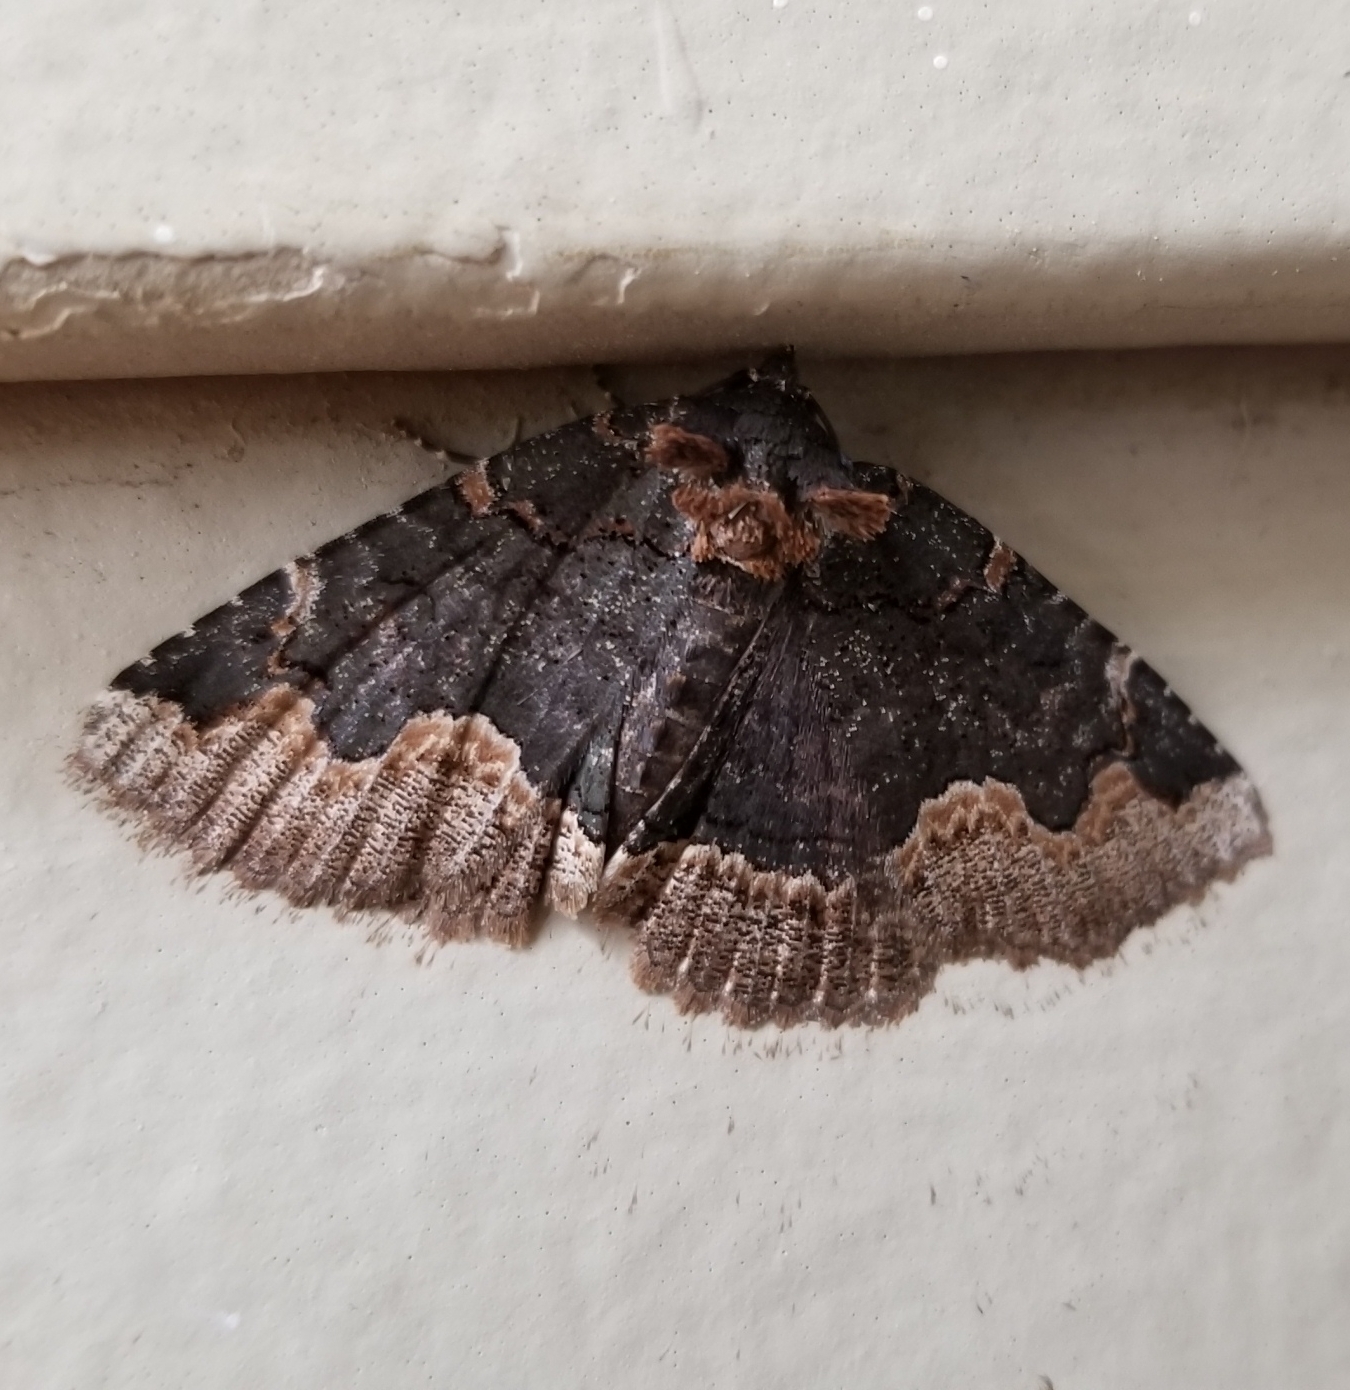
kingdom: Animalia
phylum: Arthropoda
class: Insecta
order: Lepidoptera
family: Erebidae
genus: Zale
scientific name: Zale horrida
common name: Horrid zale moth
